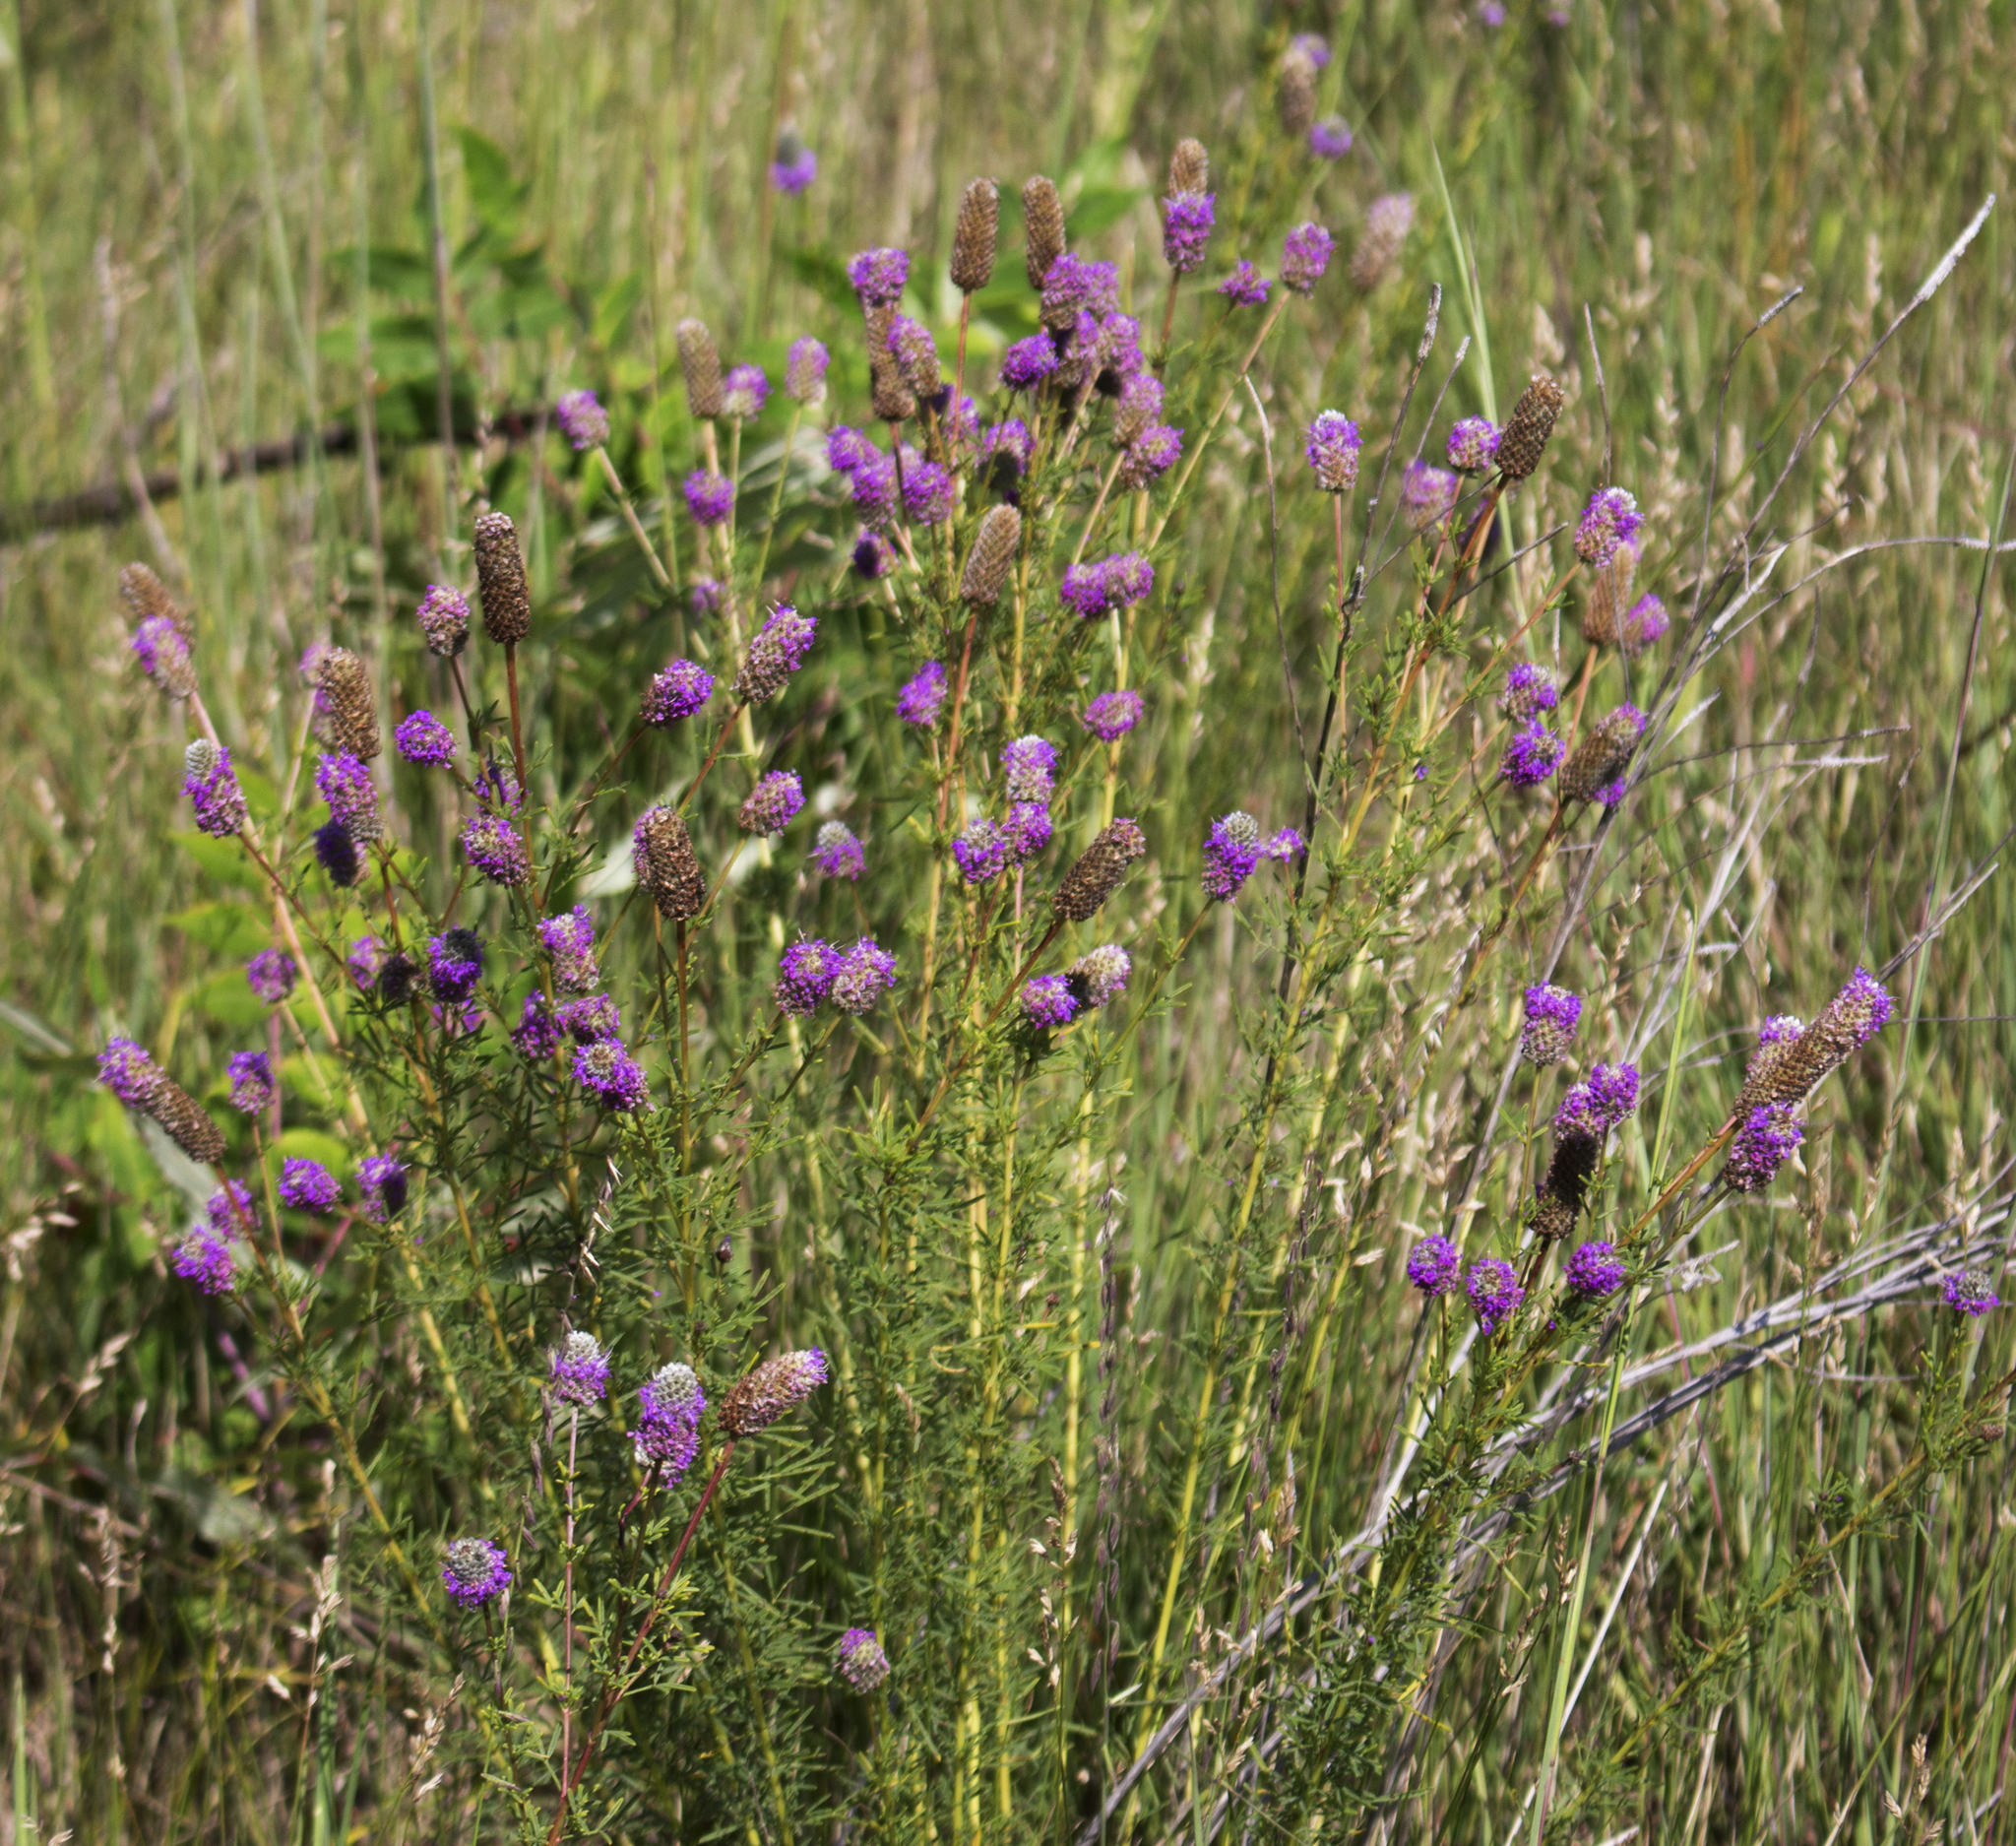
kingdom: Plantae
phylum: Tracheophyta
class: Magnoliopsida
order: Fabales
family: Fabaceae
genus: Dalea
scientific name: Dalea purpurea
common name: Purple prairie-clover
